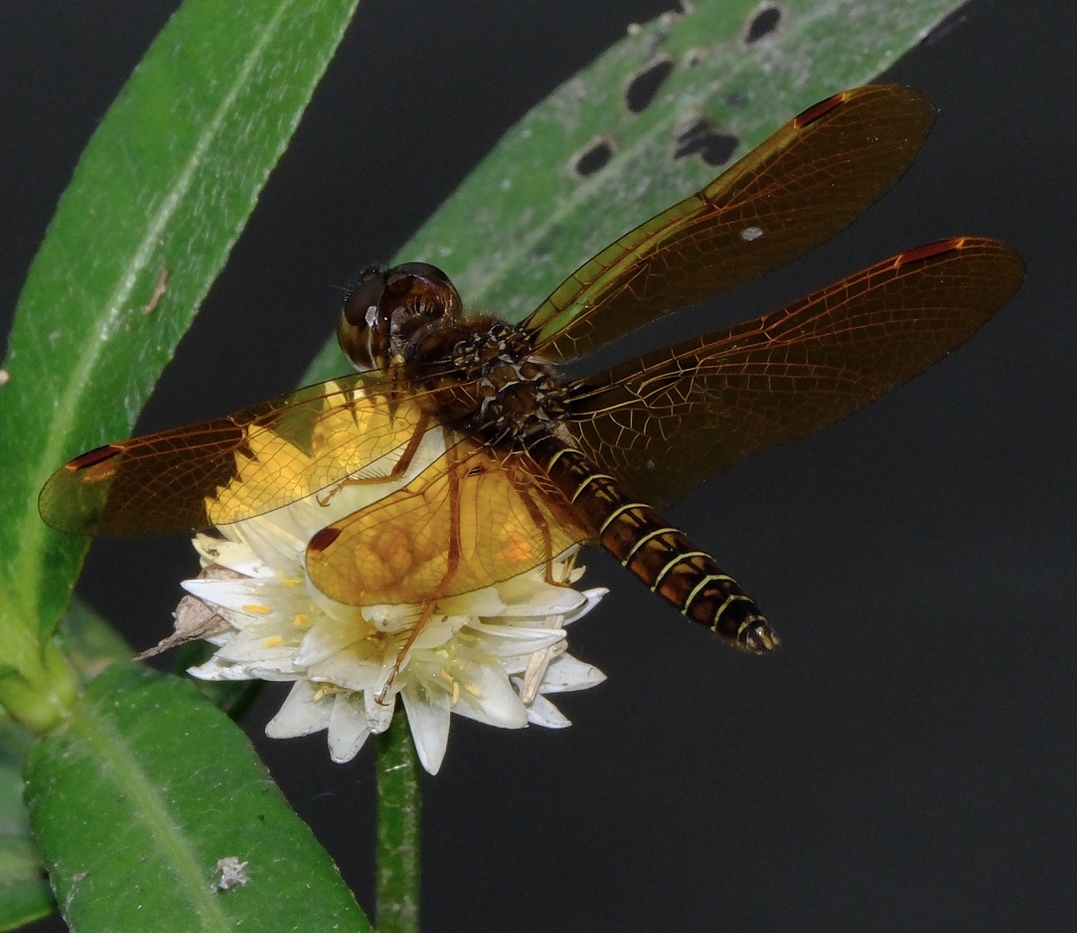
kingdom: Animalia
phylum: Arthropoda
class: Insecta
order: Odonata
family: Libellulidae
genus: Perithemis
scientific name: Perithemis tenera
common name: Eastern amberwing
